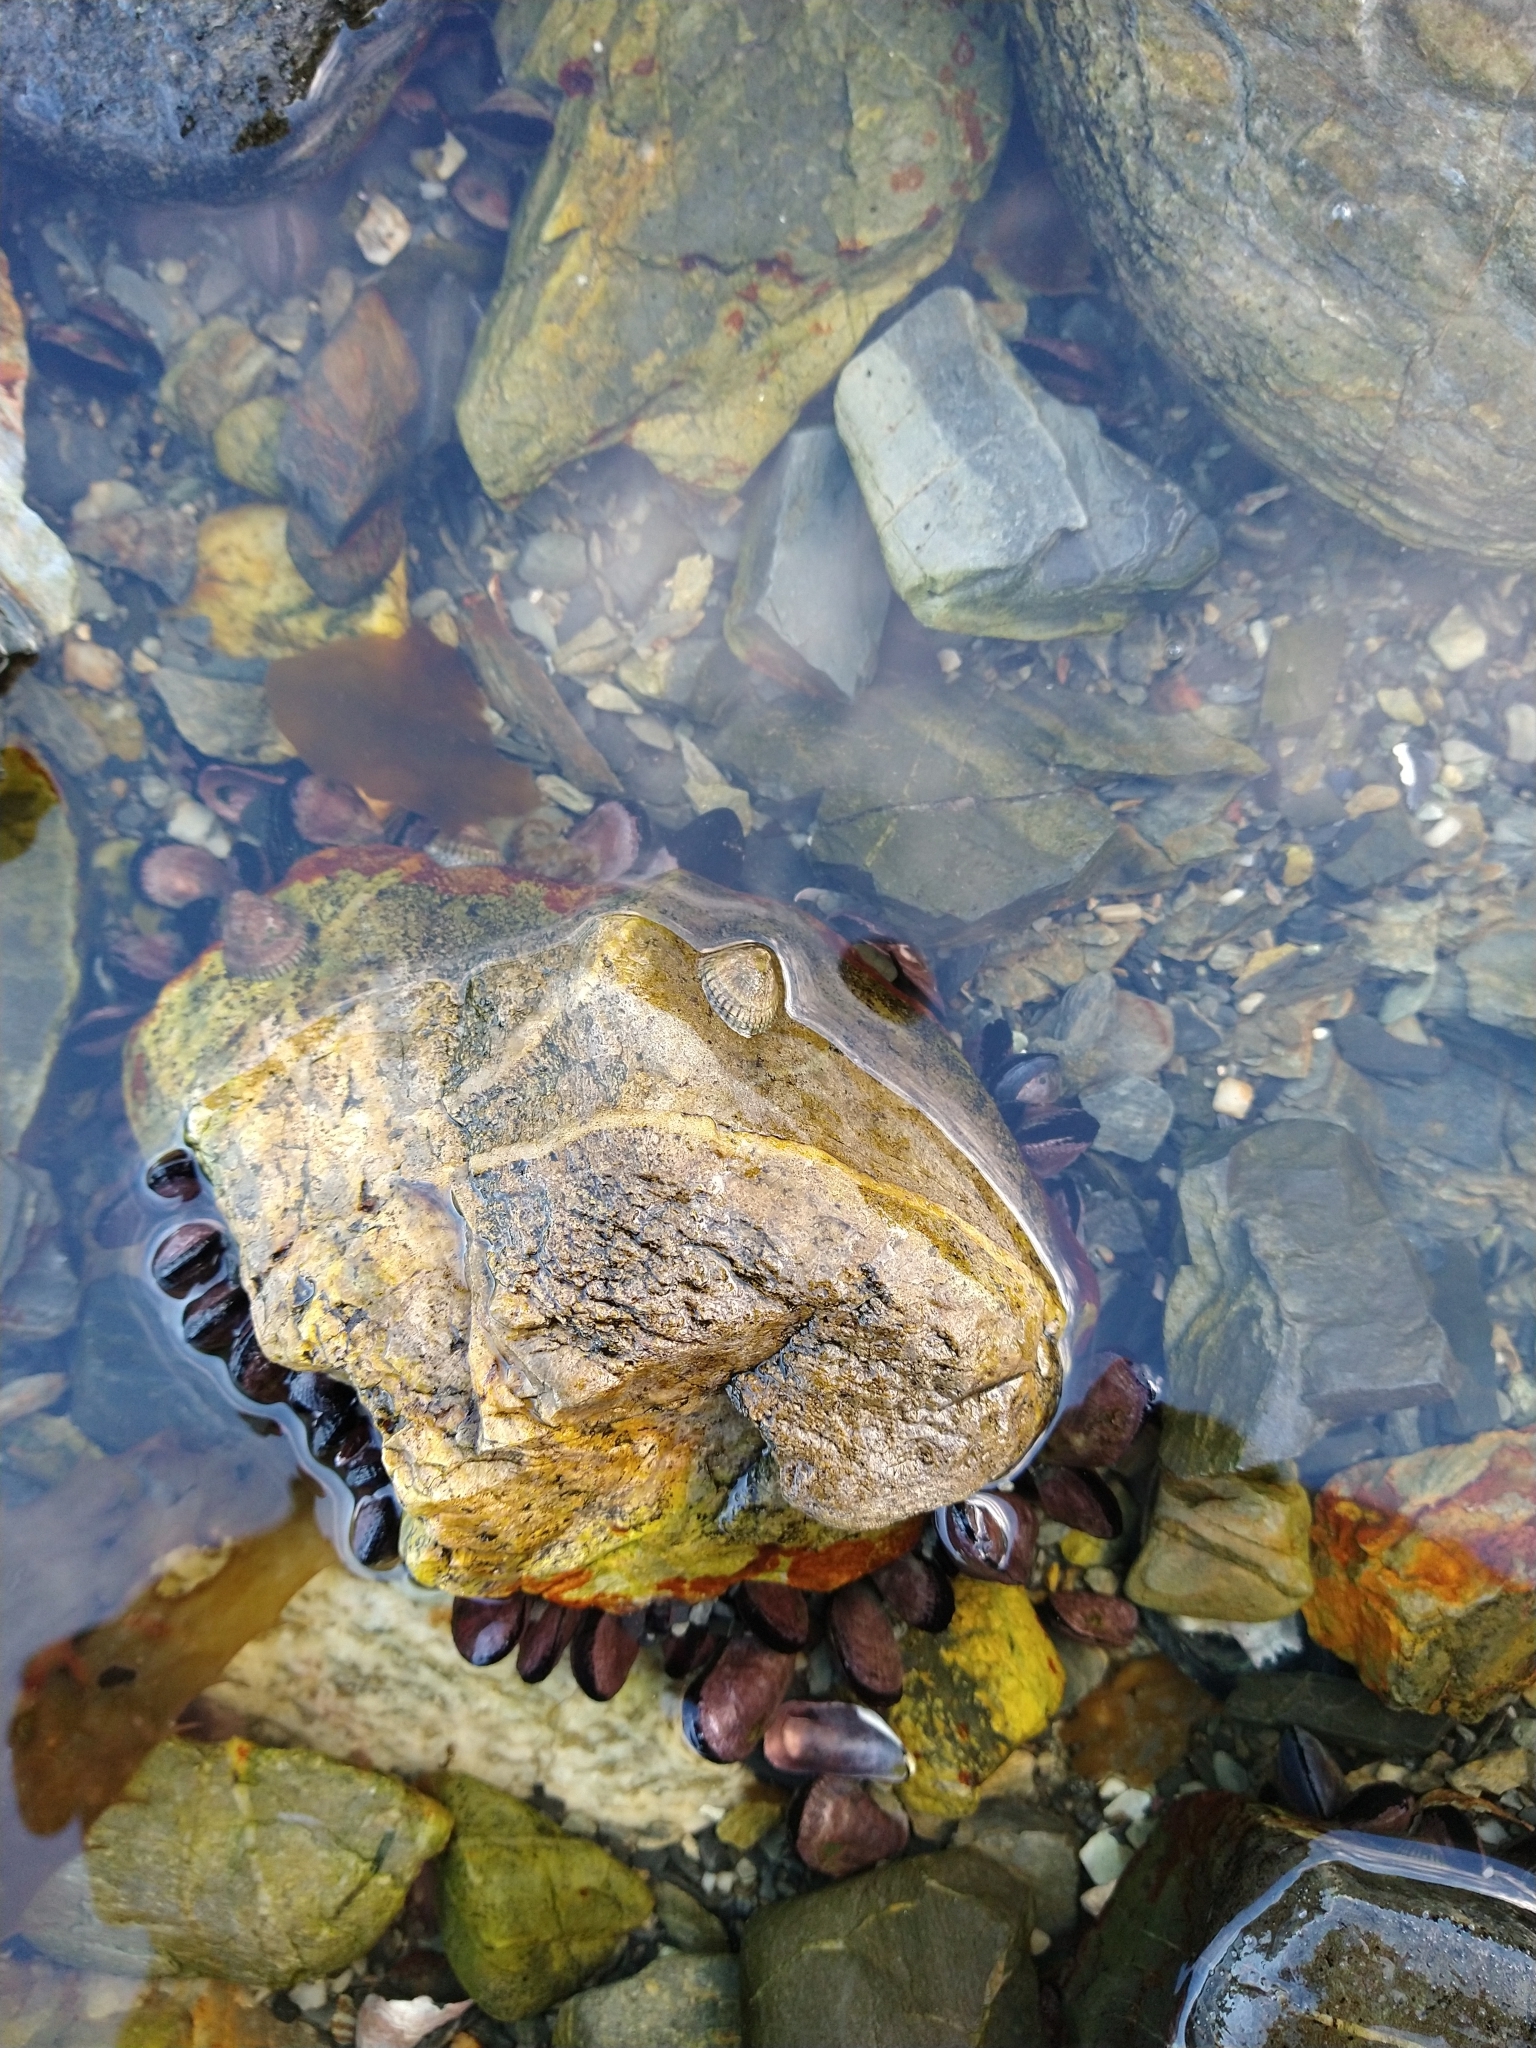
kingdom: Animalia
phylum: Mollusca
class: Gastropoda
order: Siphonariida
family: Siphonariidae
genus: Siphonaria
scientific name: Siphonaria lessonii
